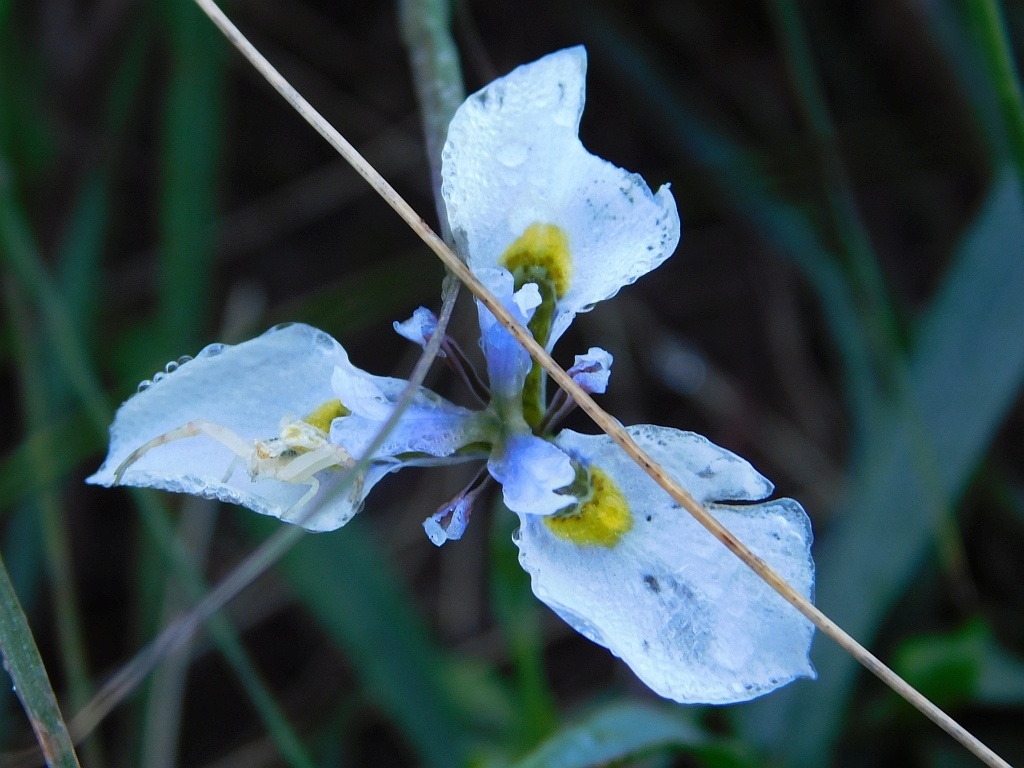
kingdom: Plantae
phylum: Tracheophyta
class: Liliopsida
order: Asparagales
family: Iridaceae
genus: Moraea
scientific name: Moraea fergusoniae
